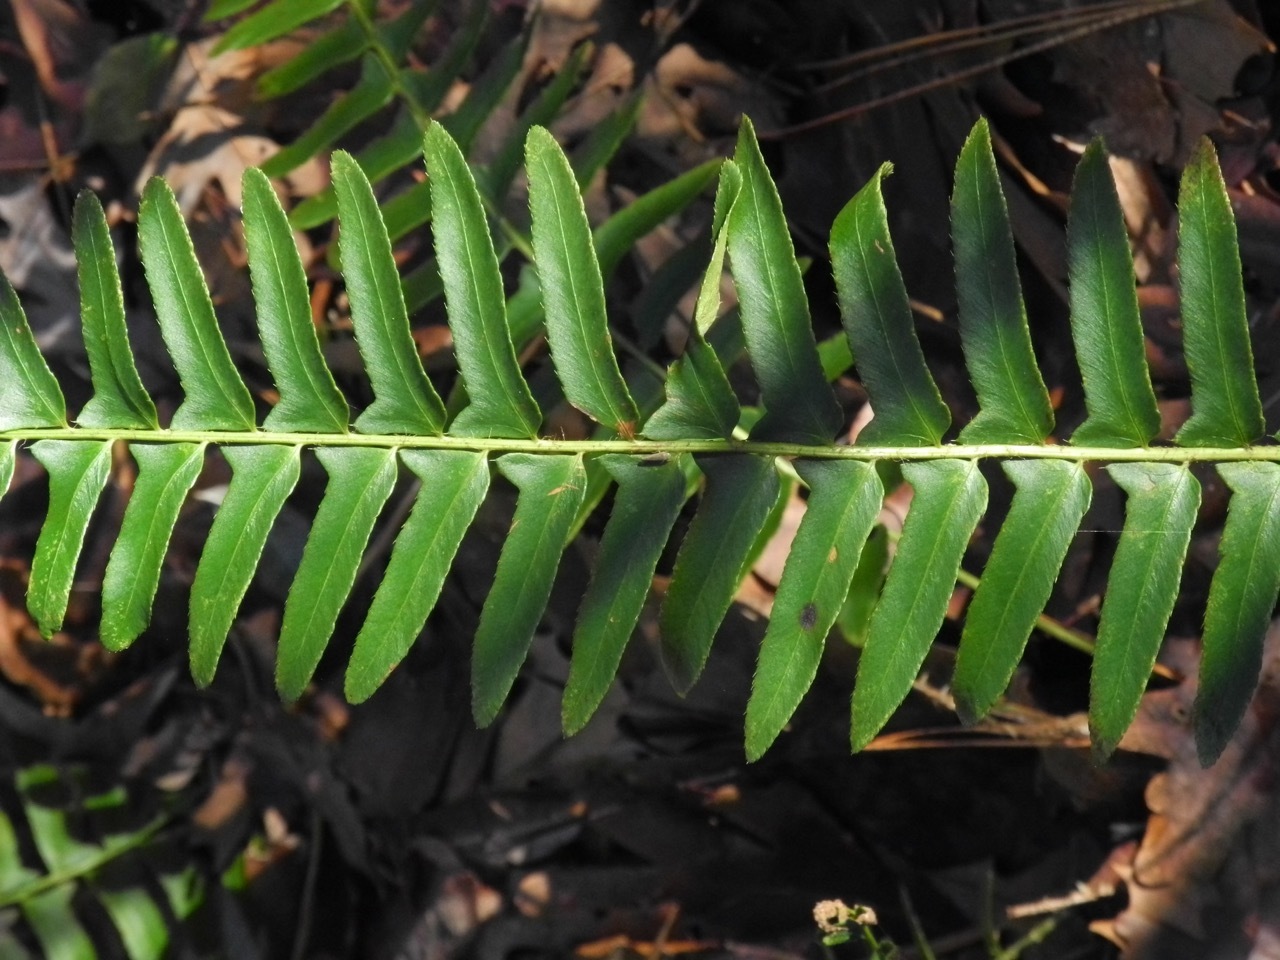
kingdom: Plantae
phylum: Tracheophyta
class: Polypodiopsida
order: Polypodiales
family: Dryopteridaceae
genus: Polystichum
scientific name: Polystichum acrostichoides
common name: Christmas fern
